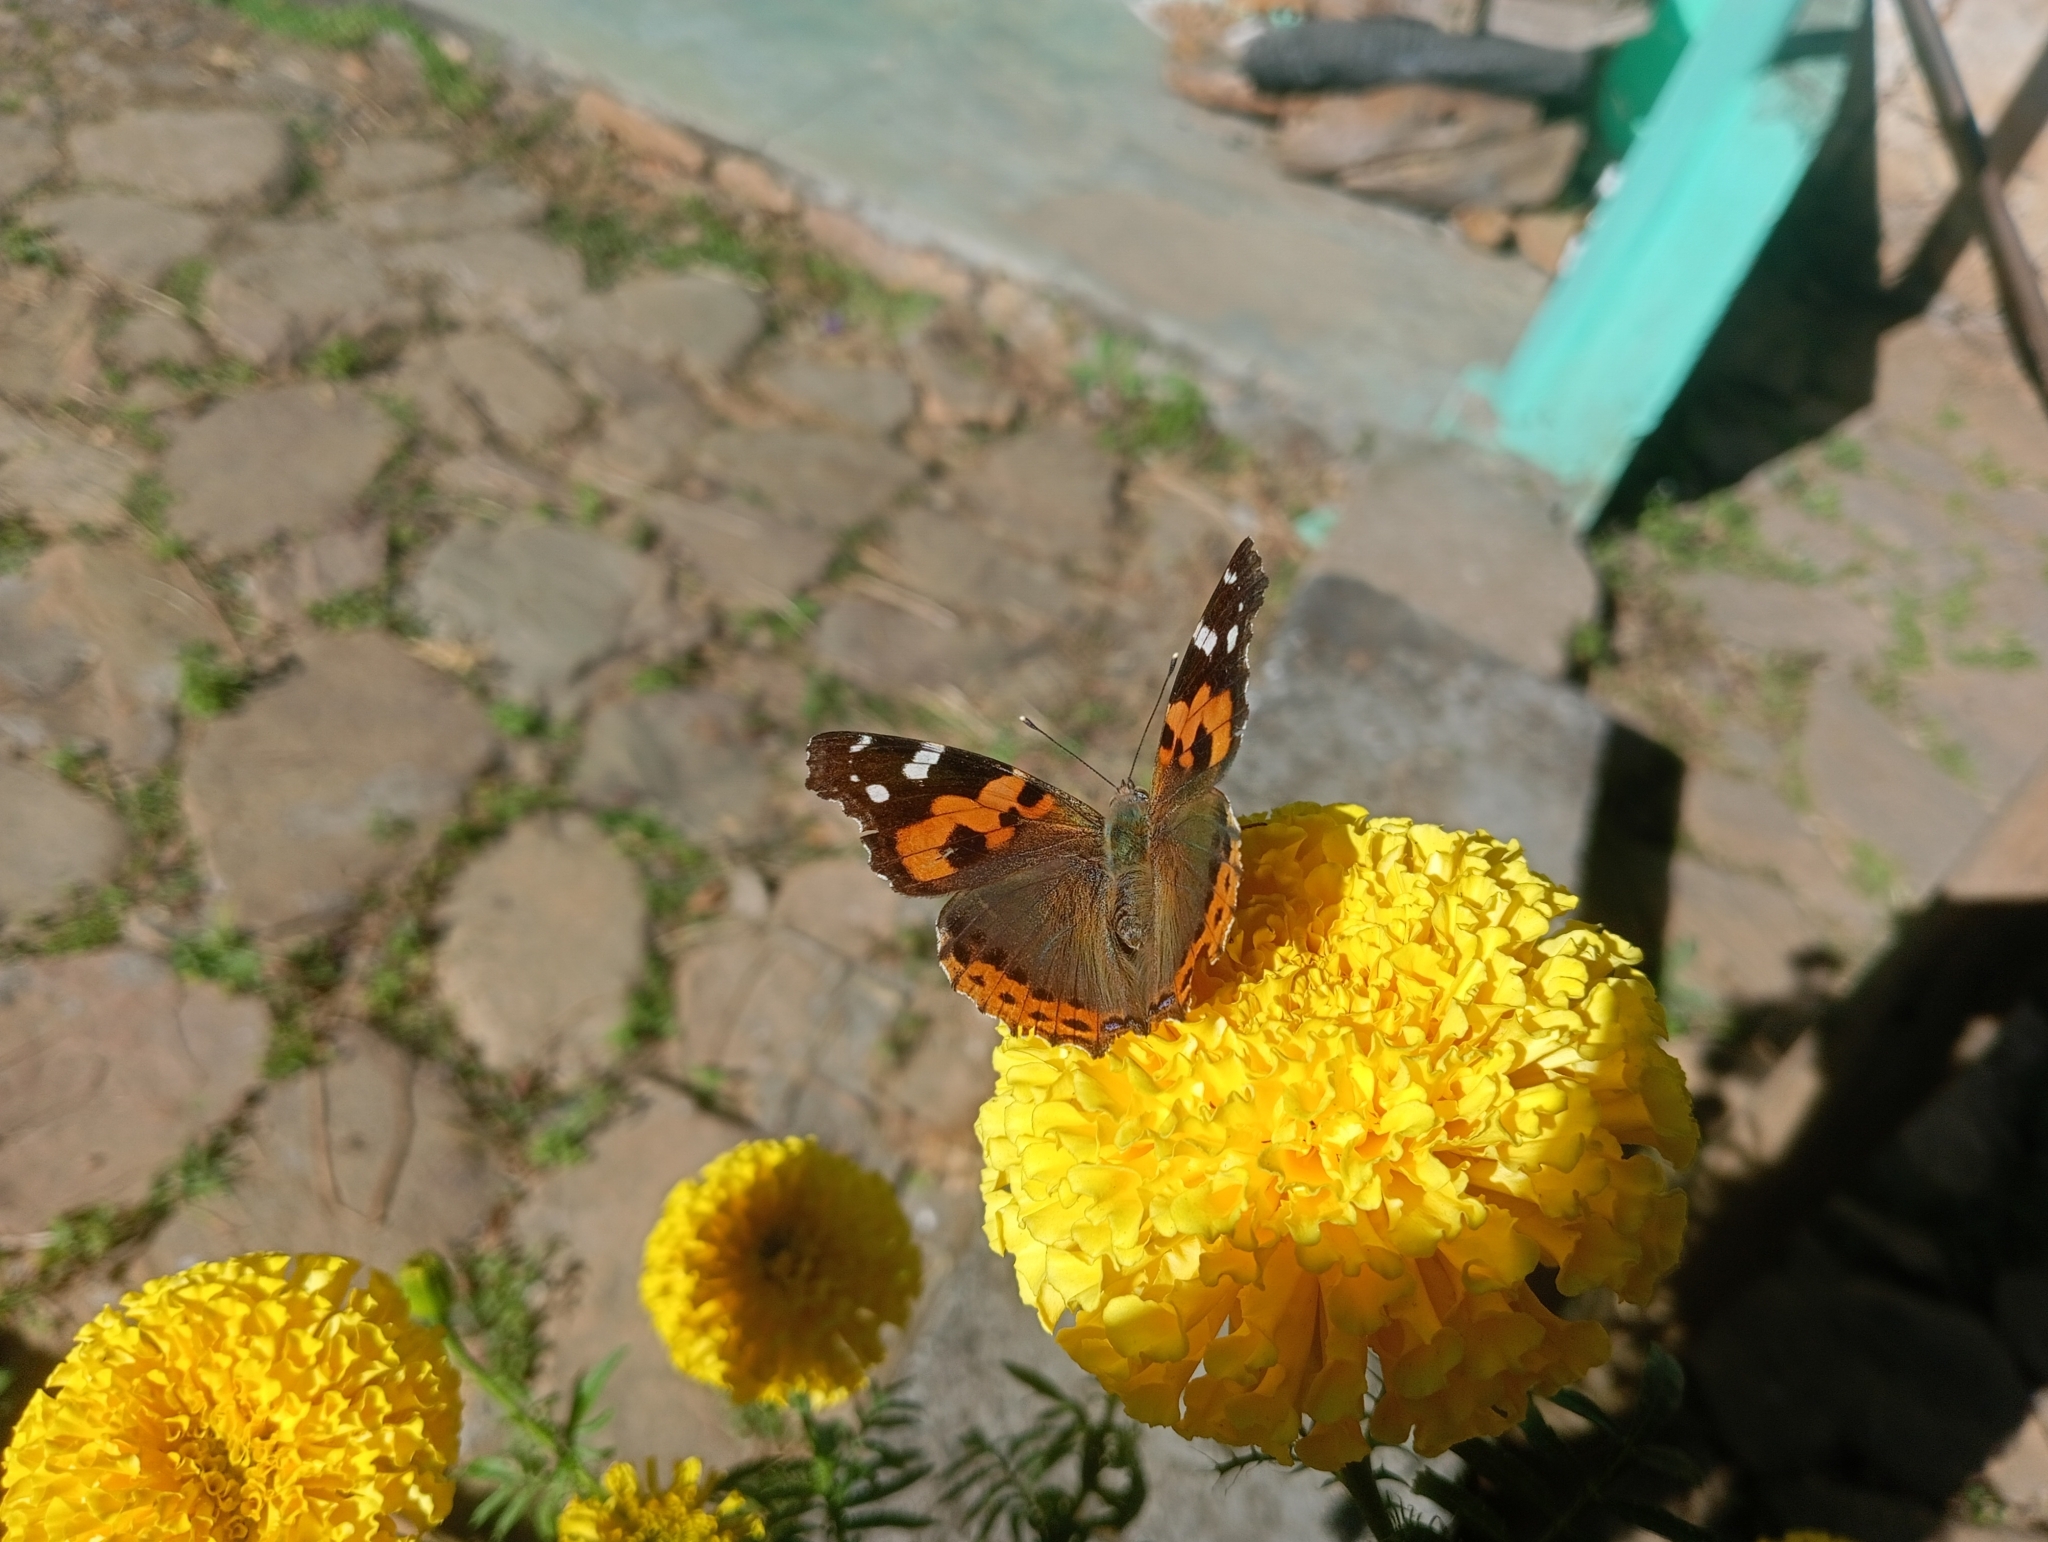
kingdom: Animalia
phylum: Arthropoda
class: Insecta
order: Lepidoptera
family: Nymphalidae
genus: Vanessa
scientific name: Vanessa indica
